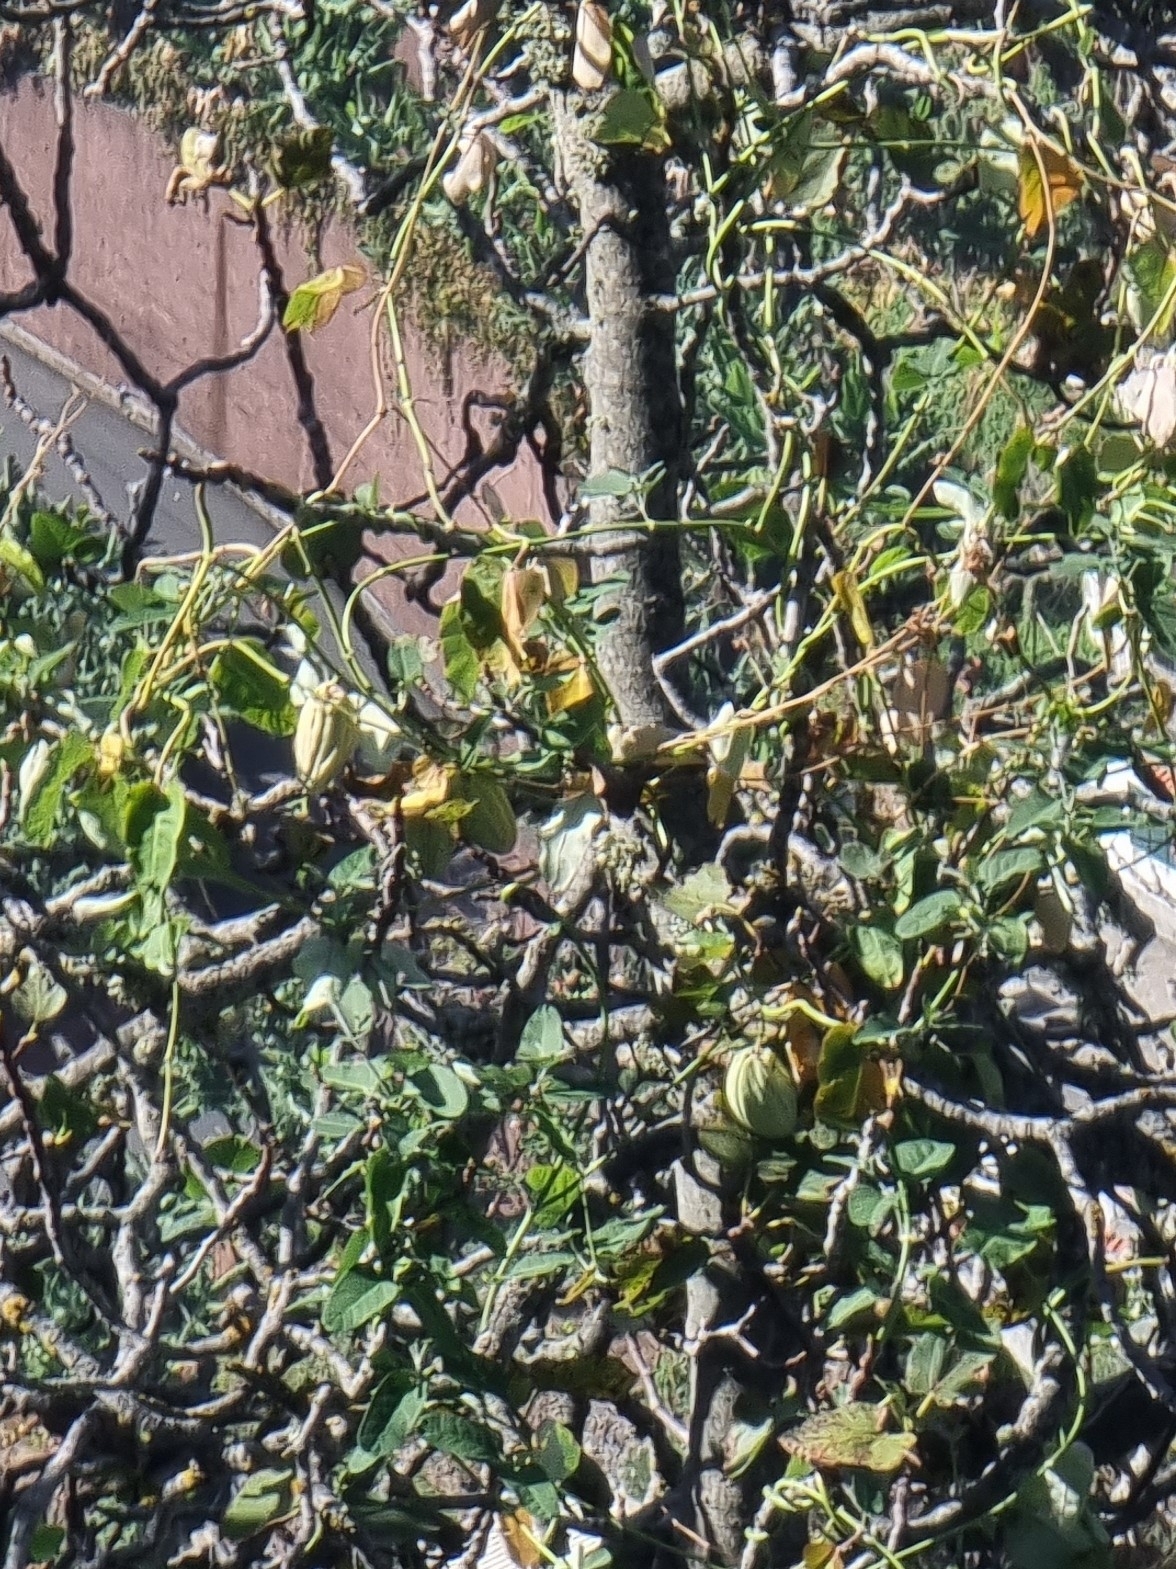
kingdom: Plantae
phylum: Tracheophyta
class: Magnoliopsida
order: Gentianales
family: Apocynaceae
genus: Araujia
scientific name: Araujia sericifera
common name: White bladderflower
